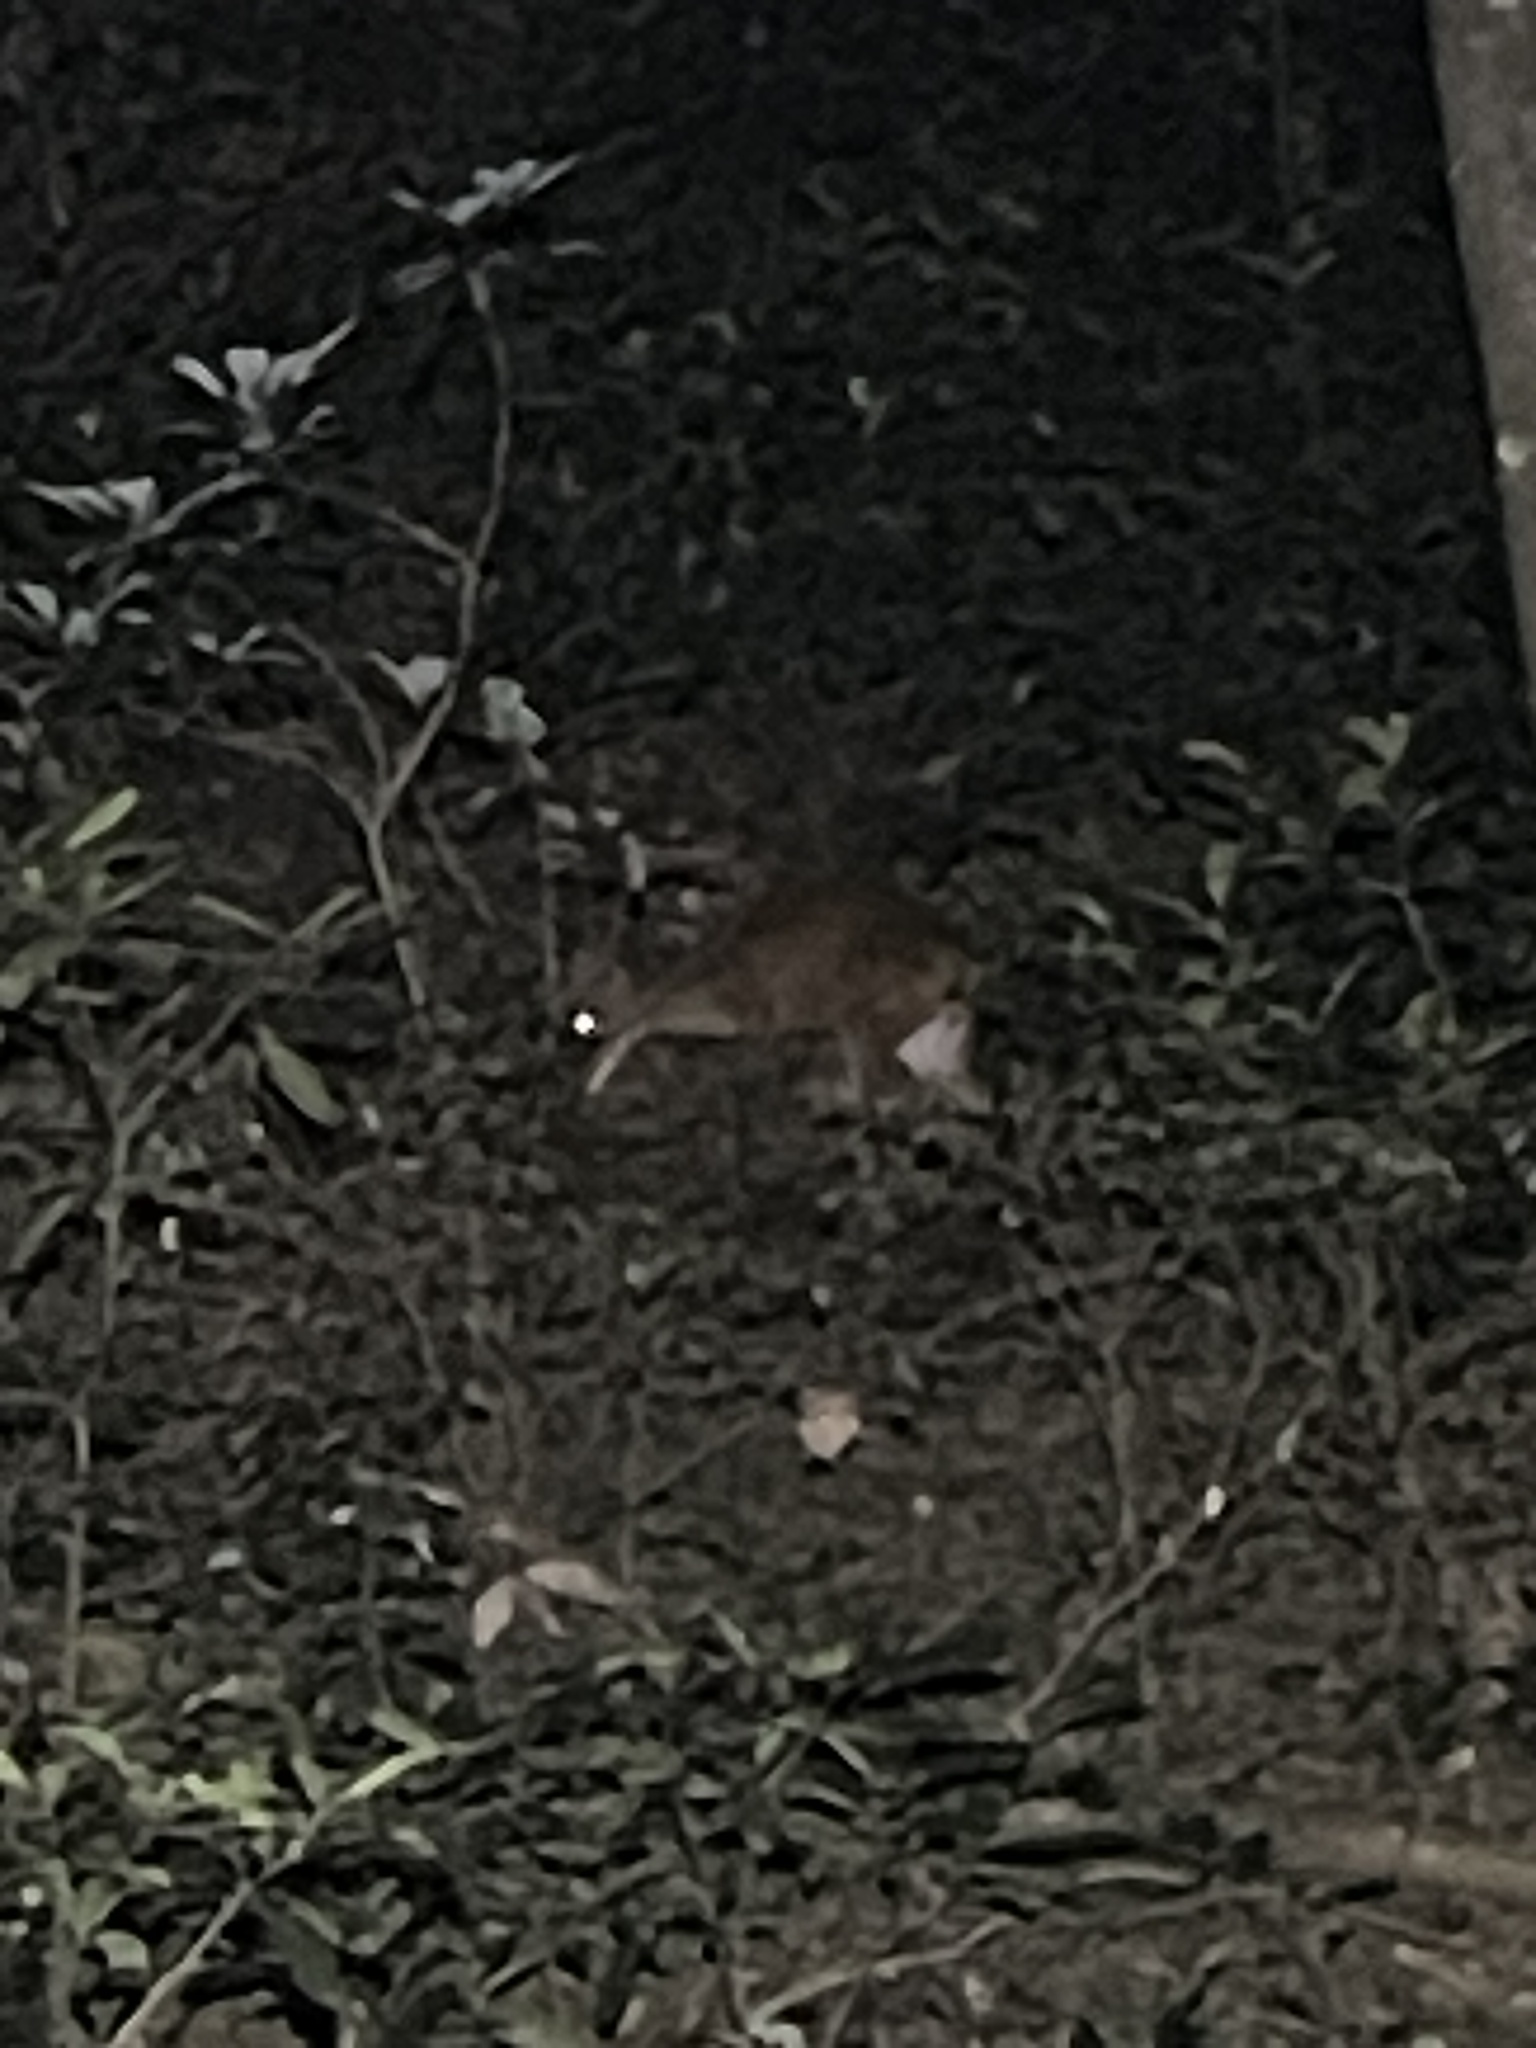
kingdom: Animalia
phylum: Chordata
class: Mammalia
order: Artiodactyla
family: Cervidae
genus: Muntiacus
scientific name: Muntiacus muntjak
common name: Indian muntjac
